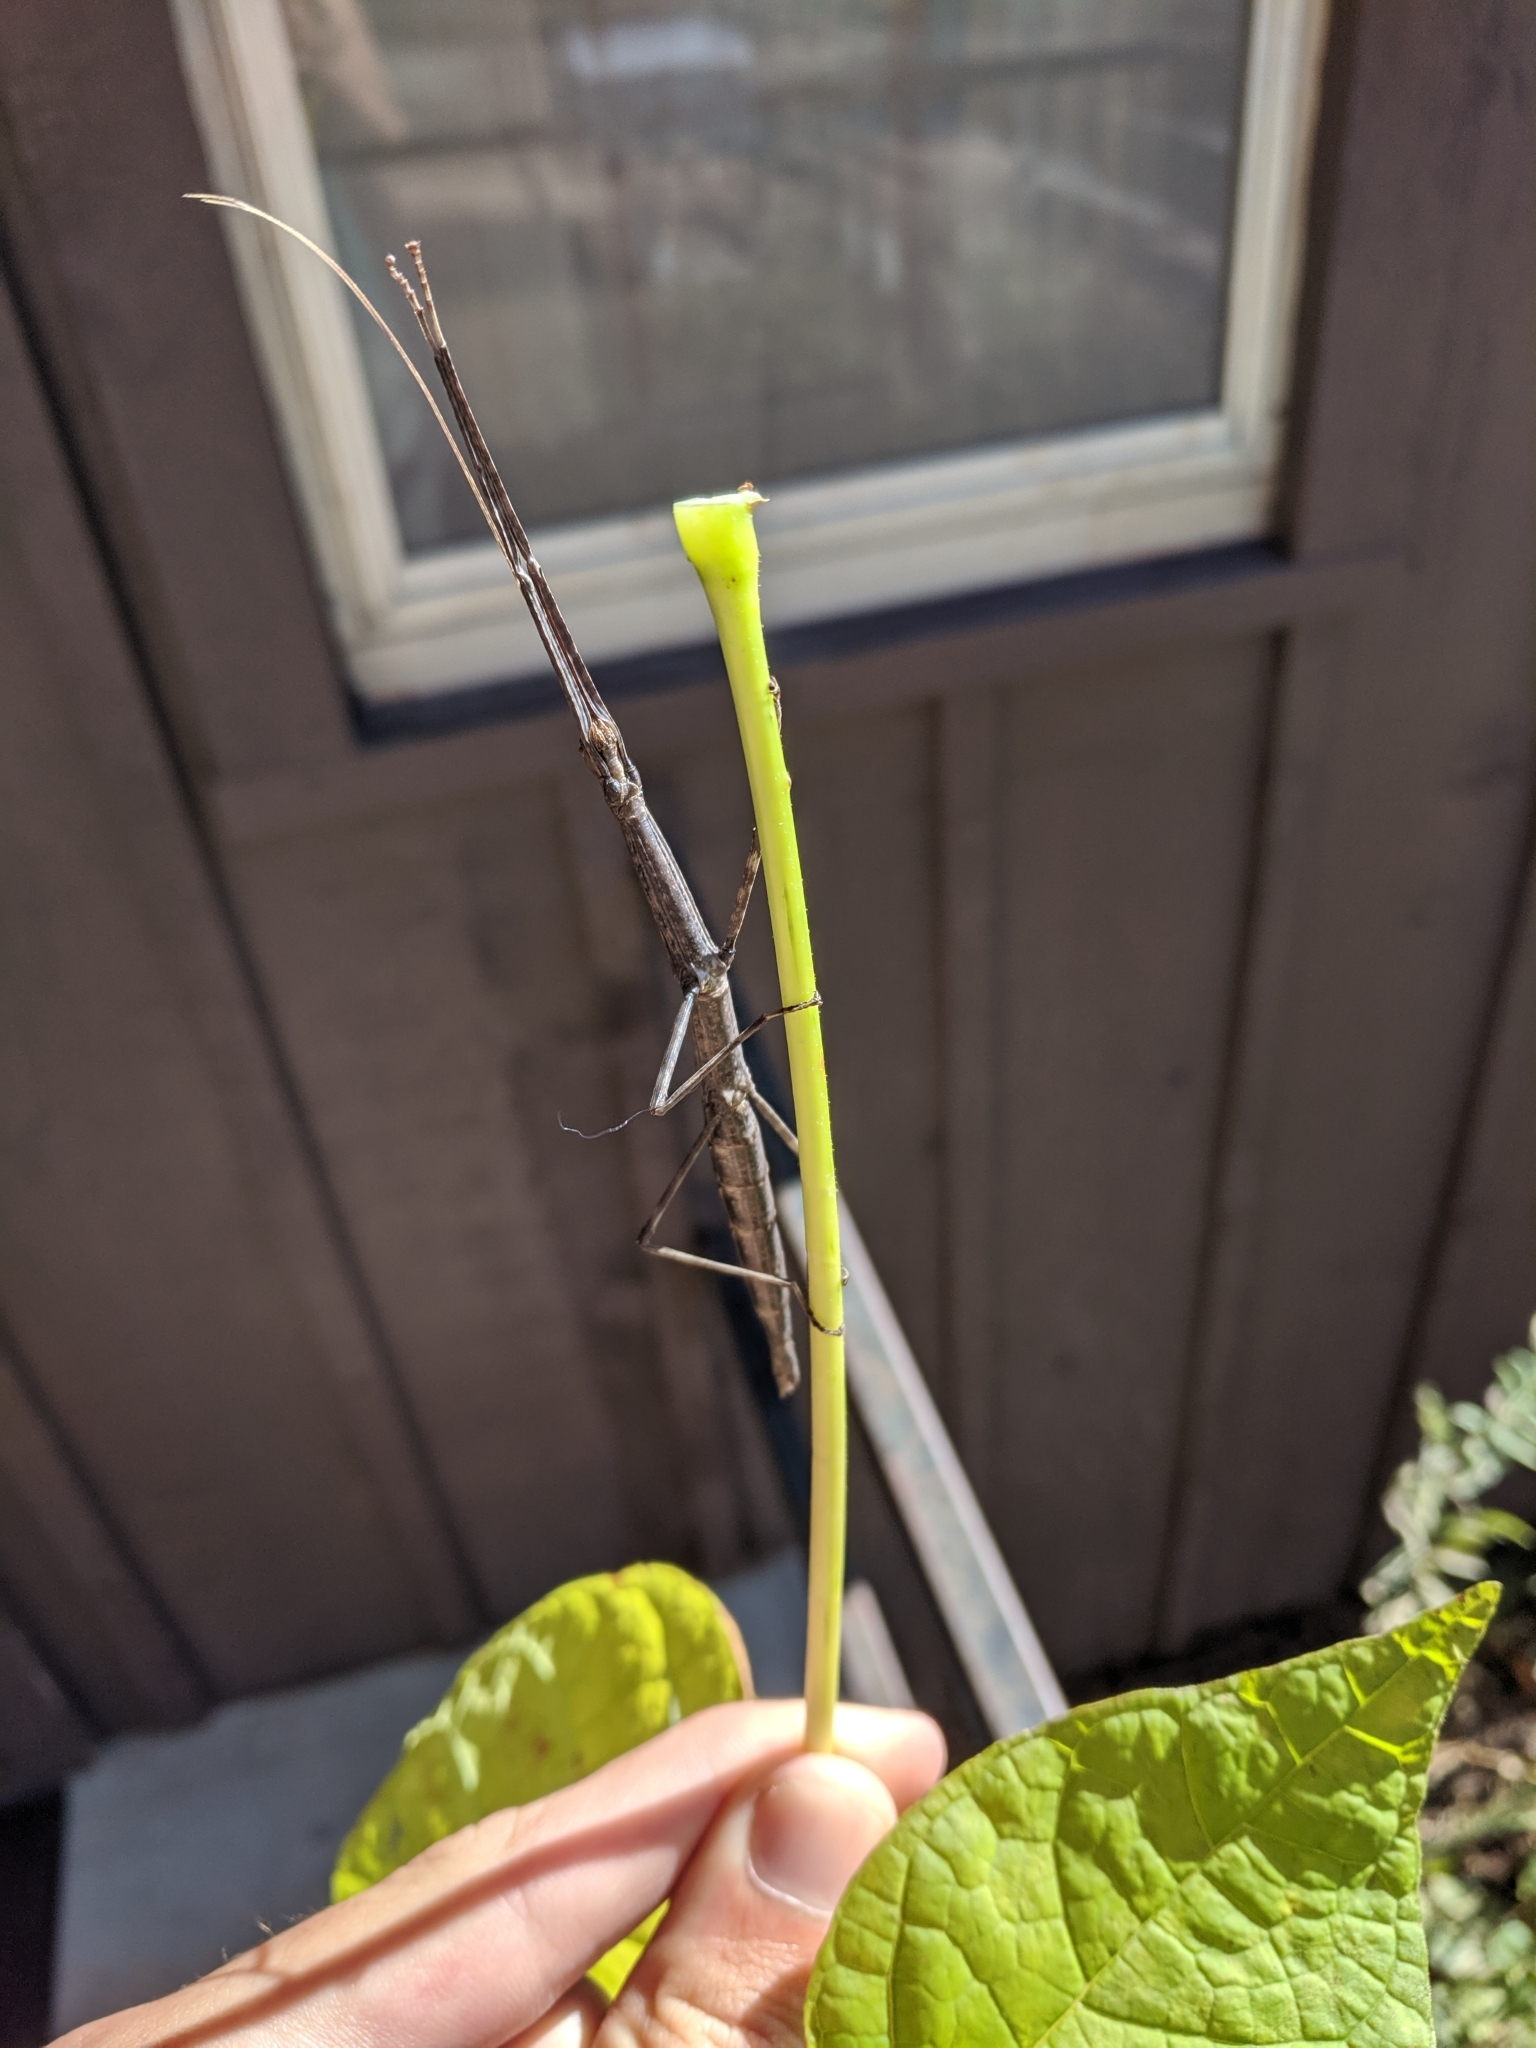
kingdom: Animalia
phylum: Arthropoda
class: Insecta
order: Phasmida
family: Diapheromeridae
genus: Diapheromera
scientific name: Diapheromera femorata
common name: Common american walkingstick
